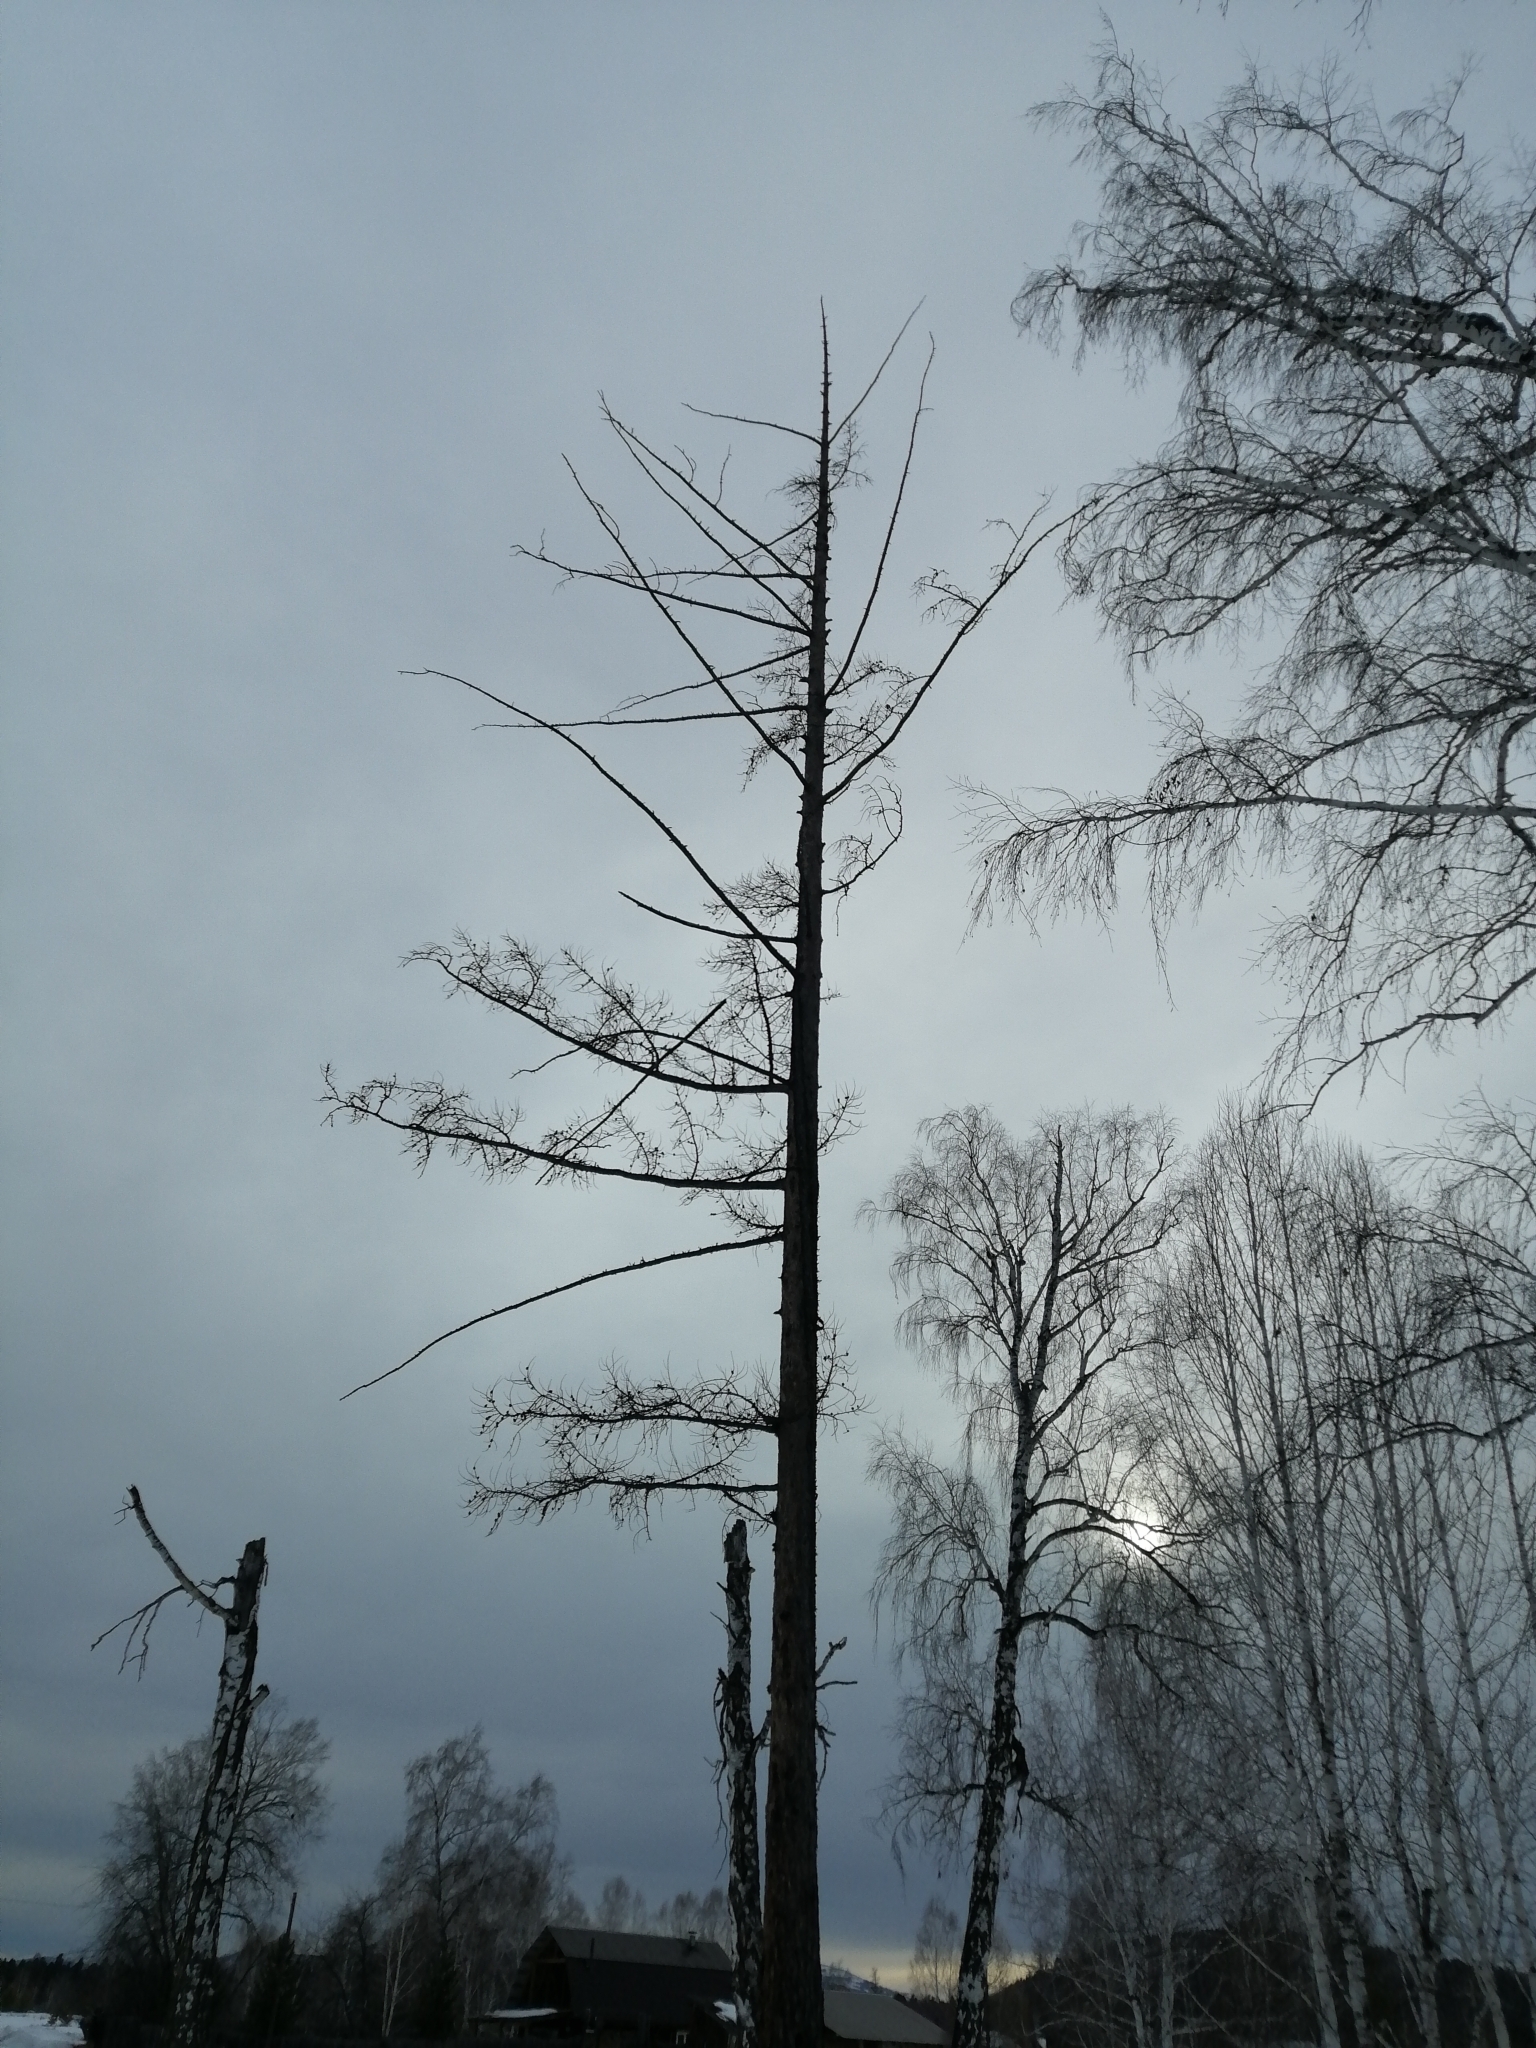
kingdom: Plantae
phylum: Tracheophyta
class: Pinopsida
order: Pinales
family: Pinaceae
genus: Larix
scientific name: Larix sibirica
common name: Siberian larch
